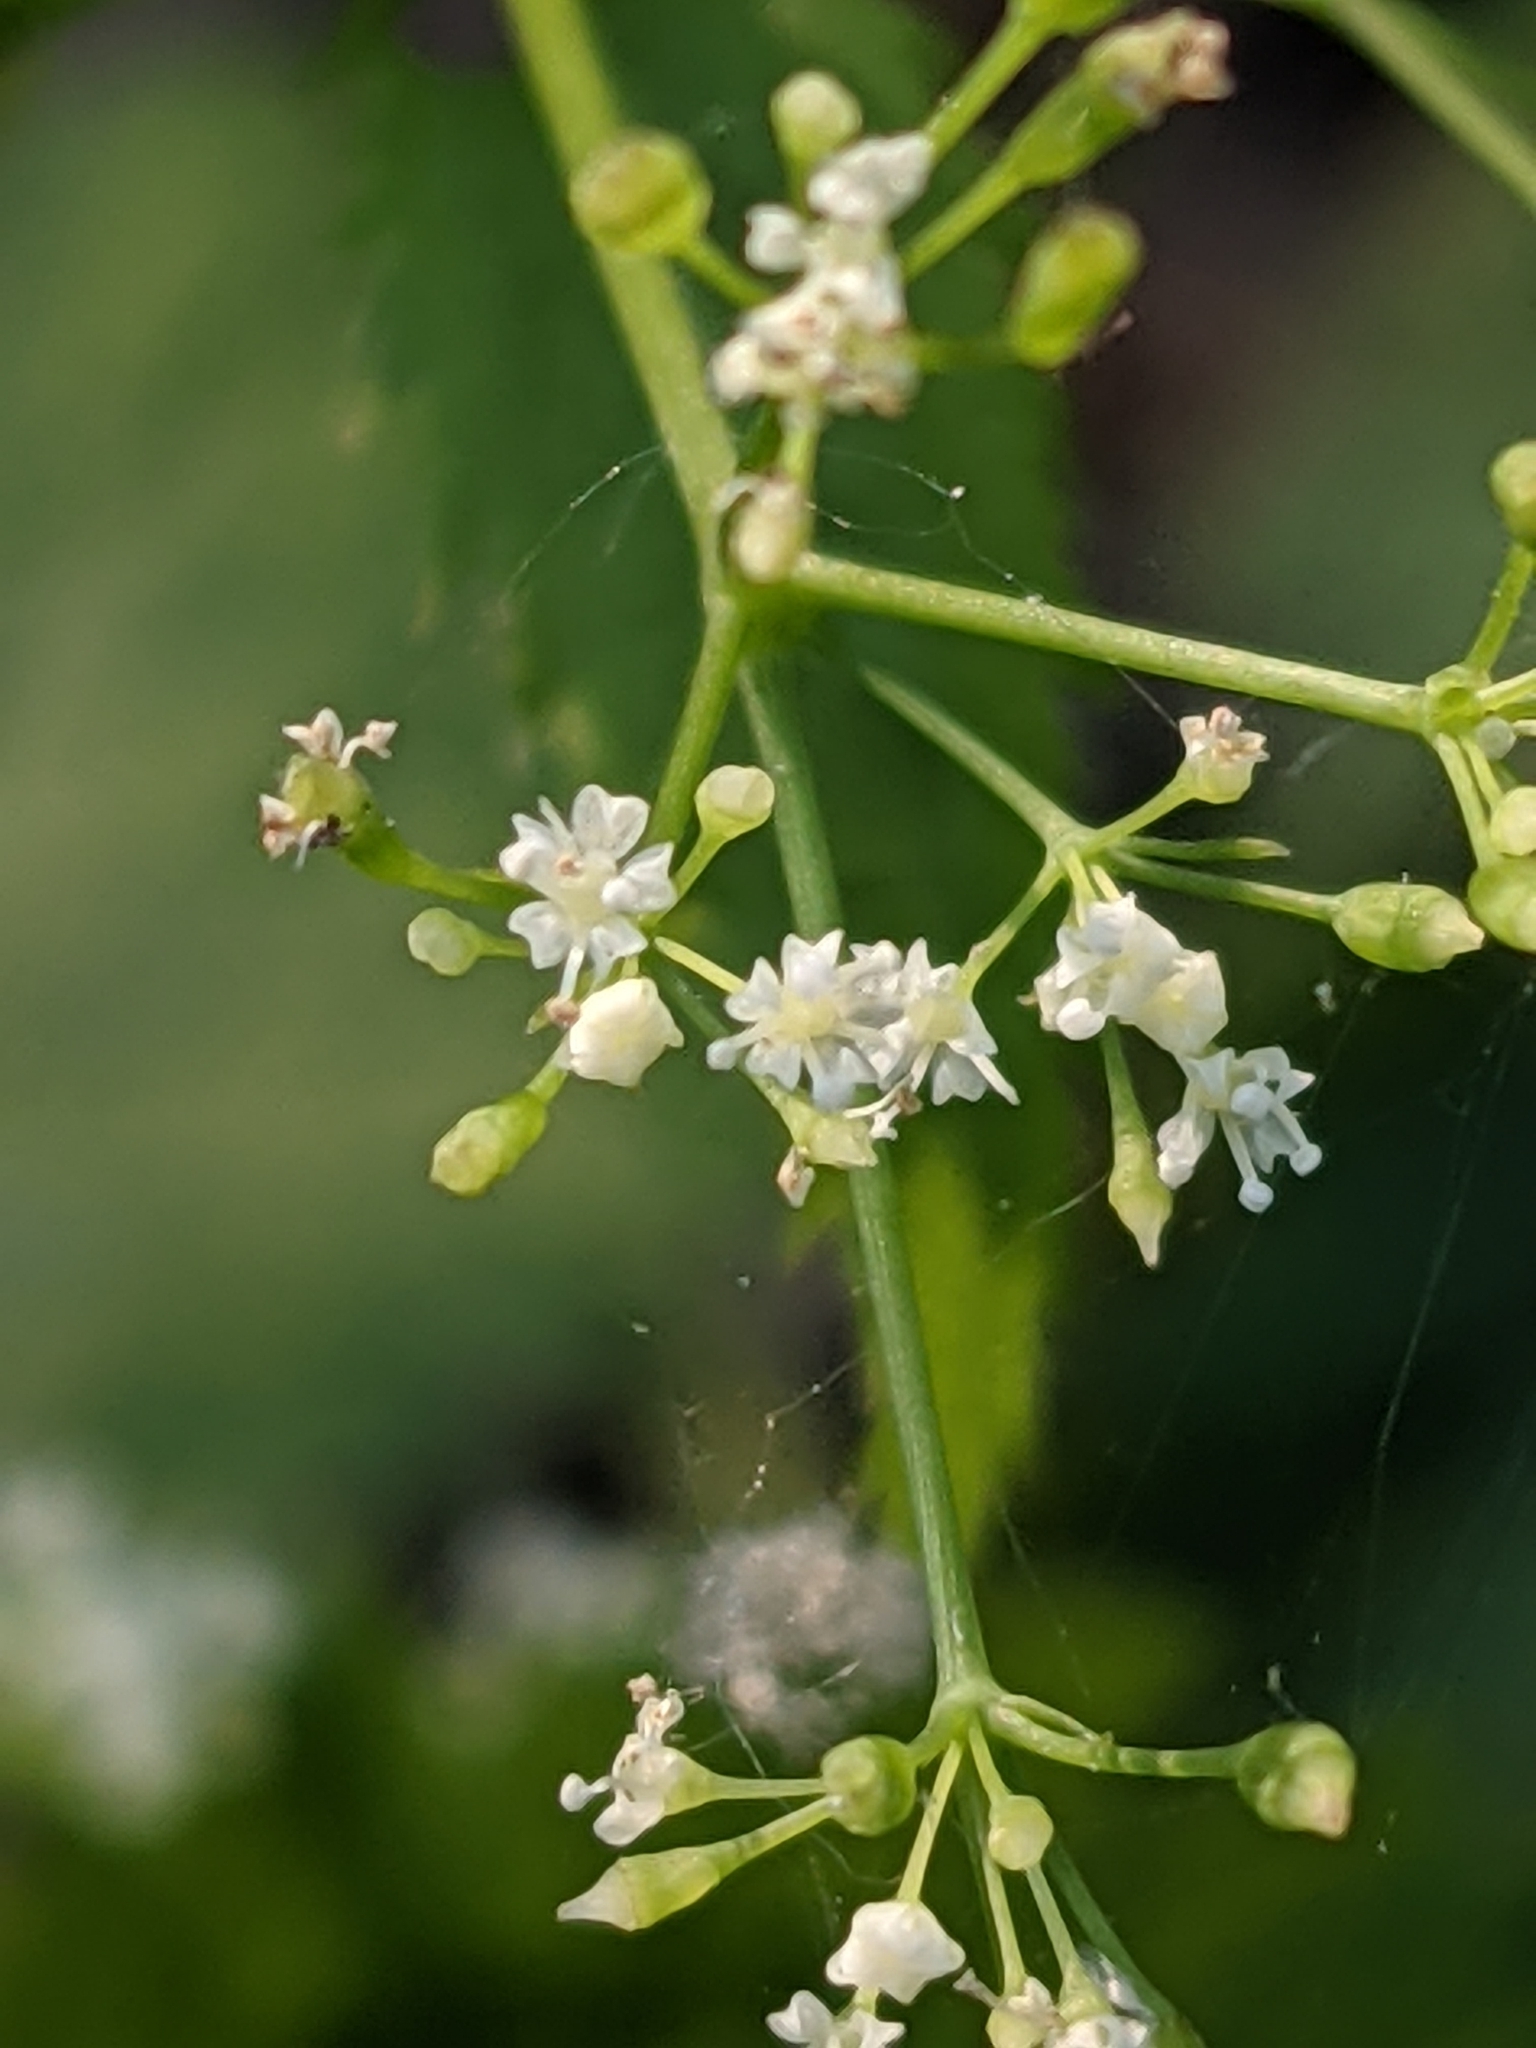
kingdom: Plantae
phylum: Tracheophyta
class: Magnoliopsida
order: Apiales
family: Apiaceae
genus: Cryptotaenia
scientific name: Cryptotaenia canadensis
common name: Honewort
